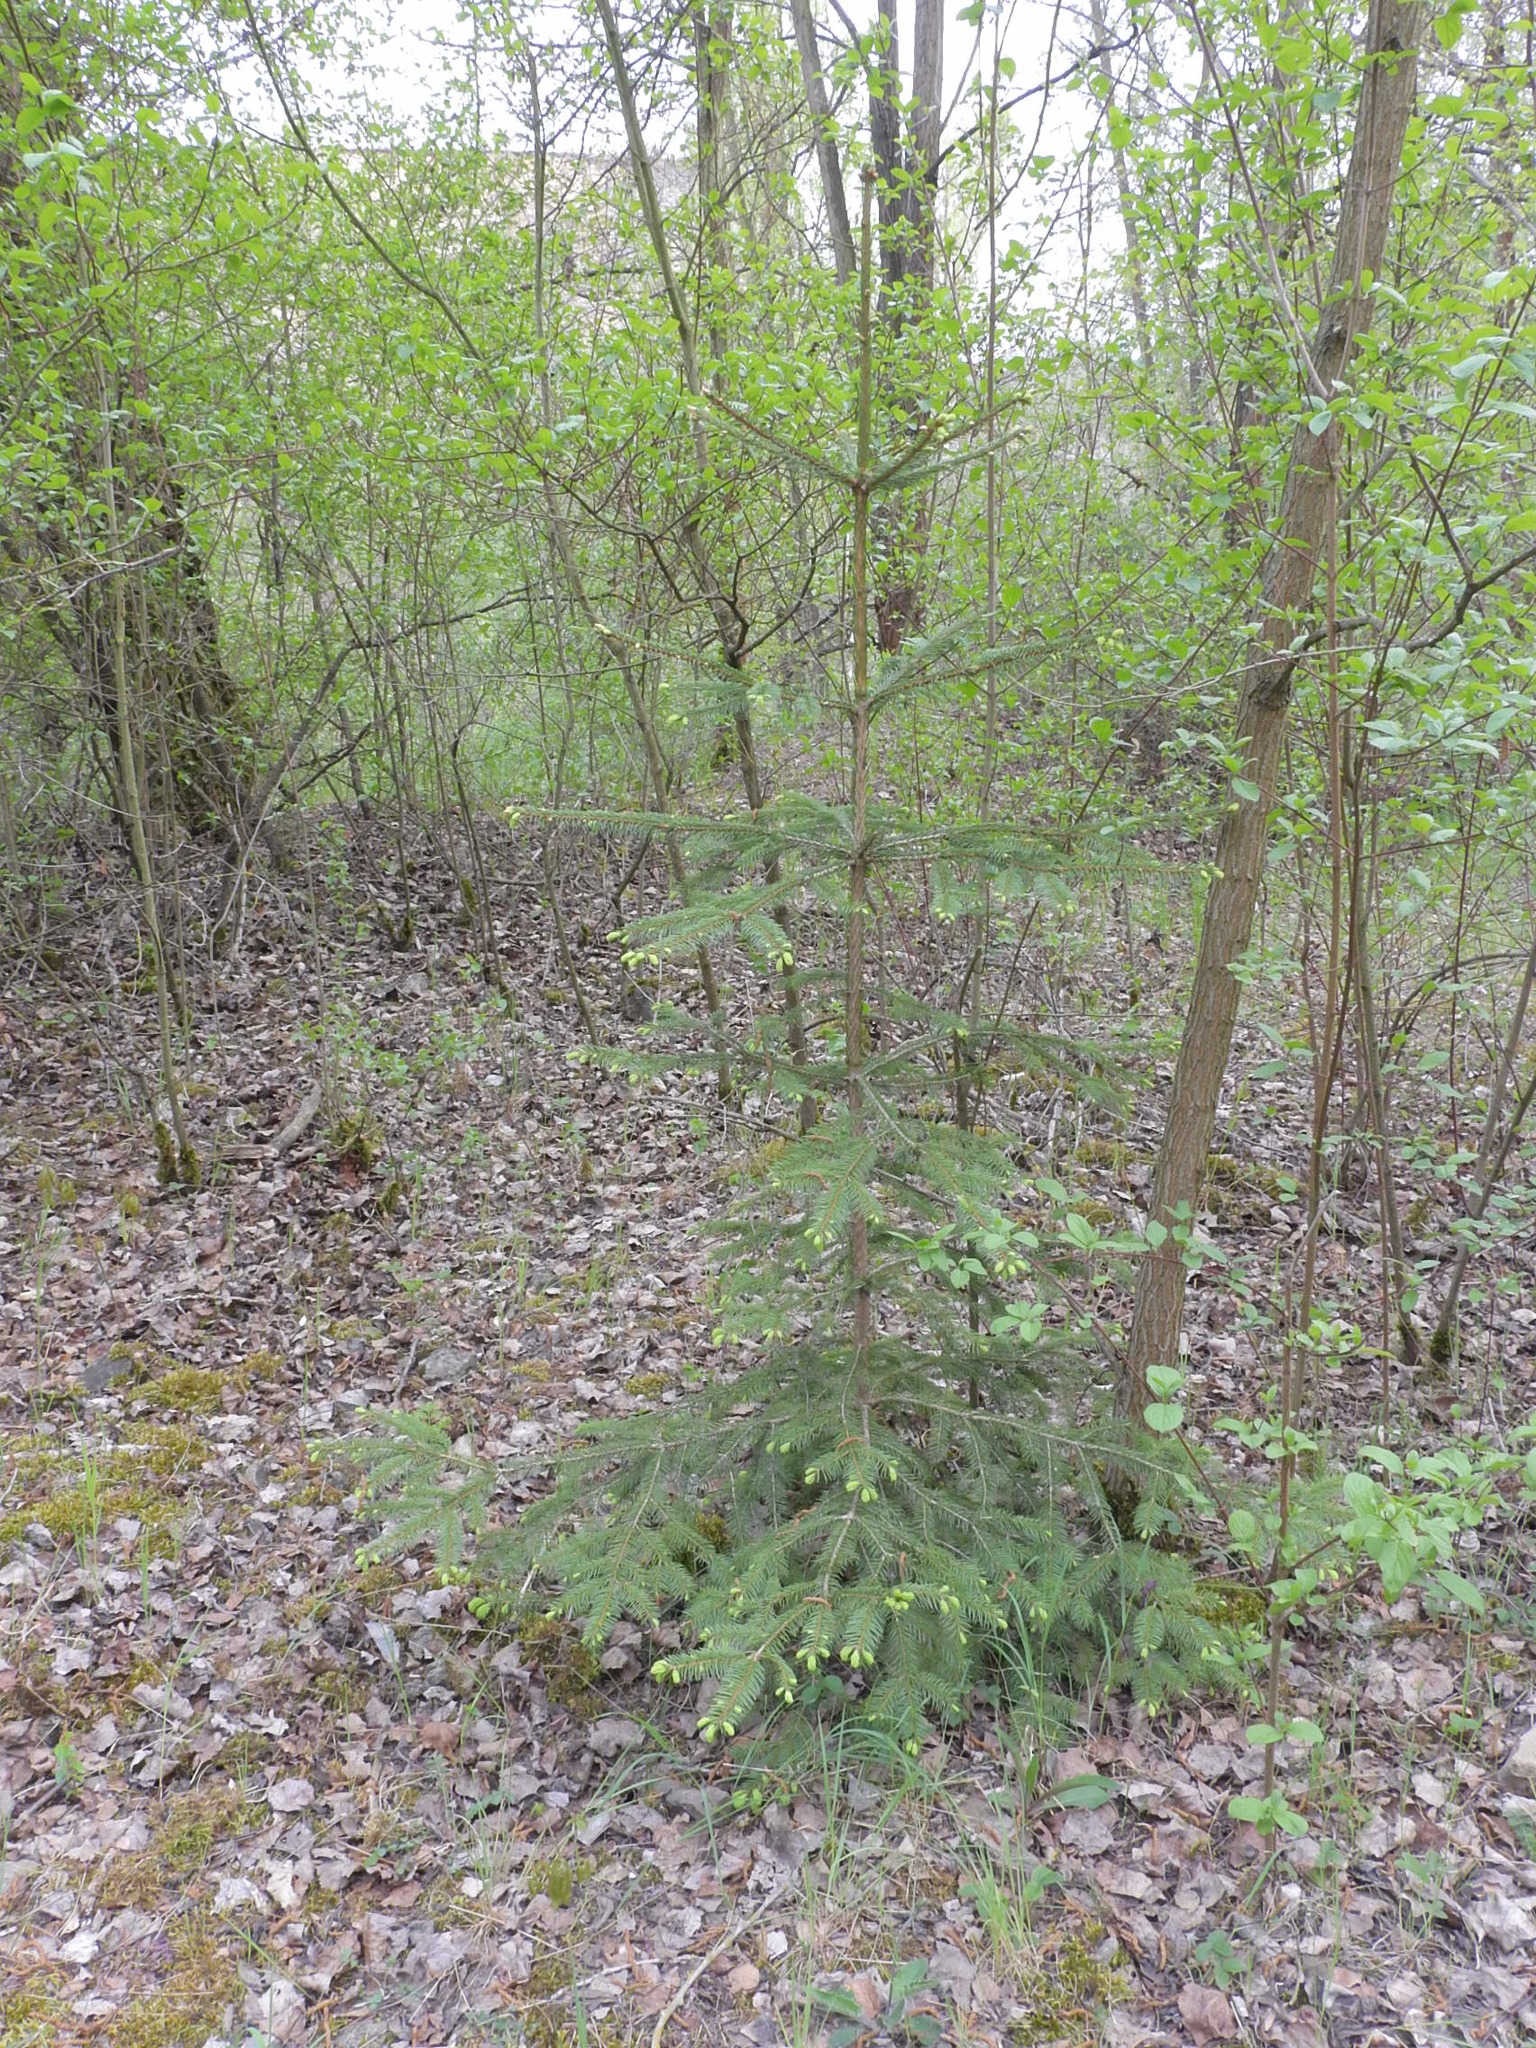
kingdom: Plantae
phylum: Tracheophyta
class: Pinopsida
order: Pinales
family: Pinaceae
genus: Picea
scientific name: Picea abies
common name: Norway spruce
